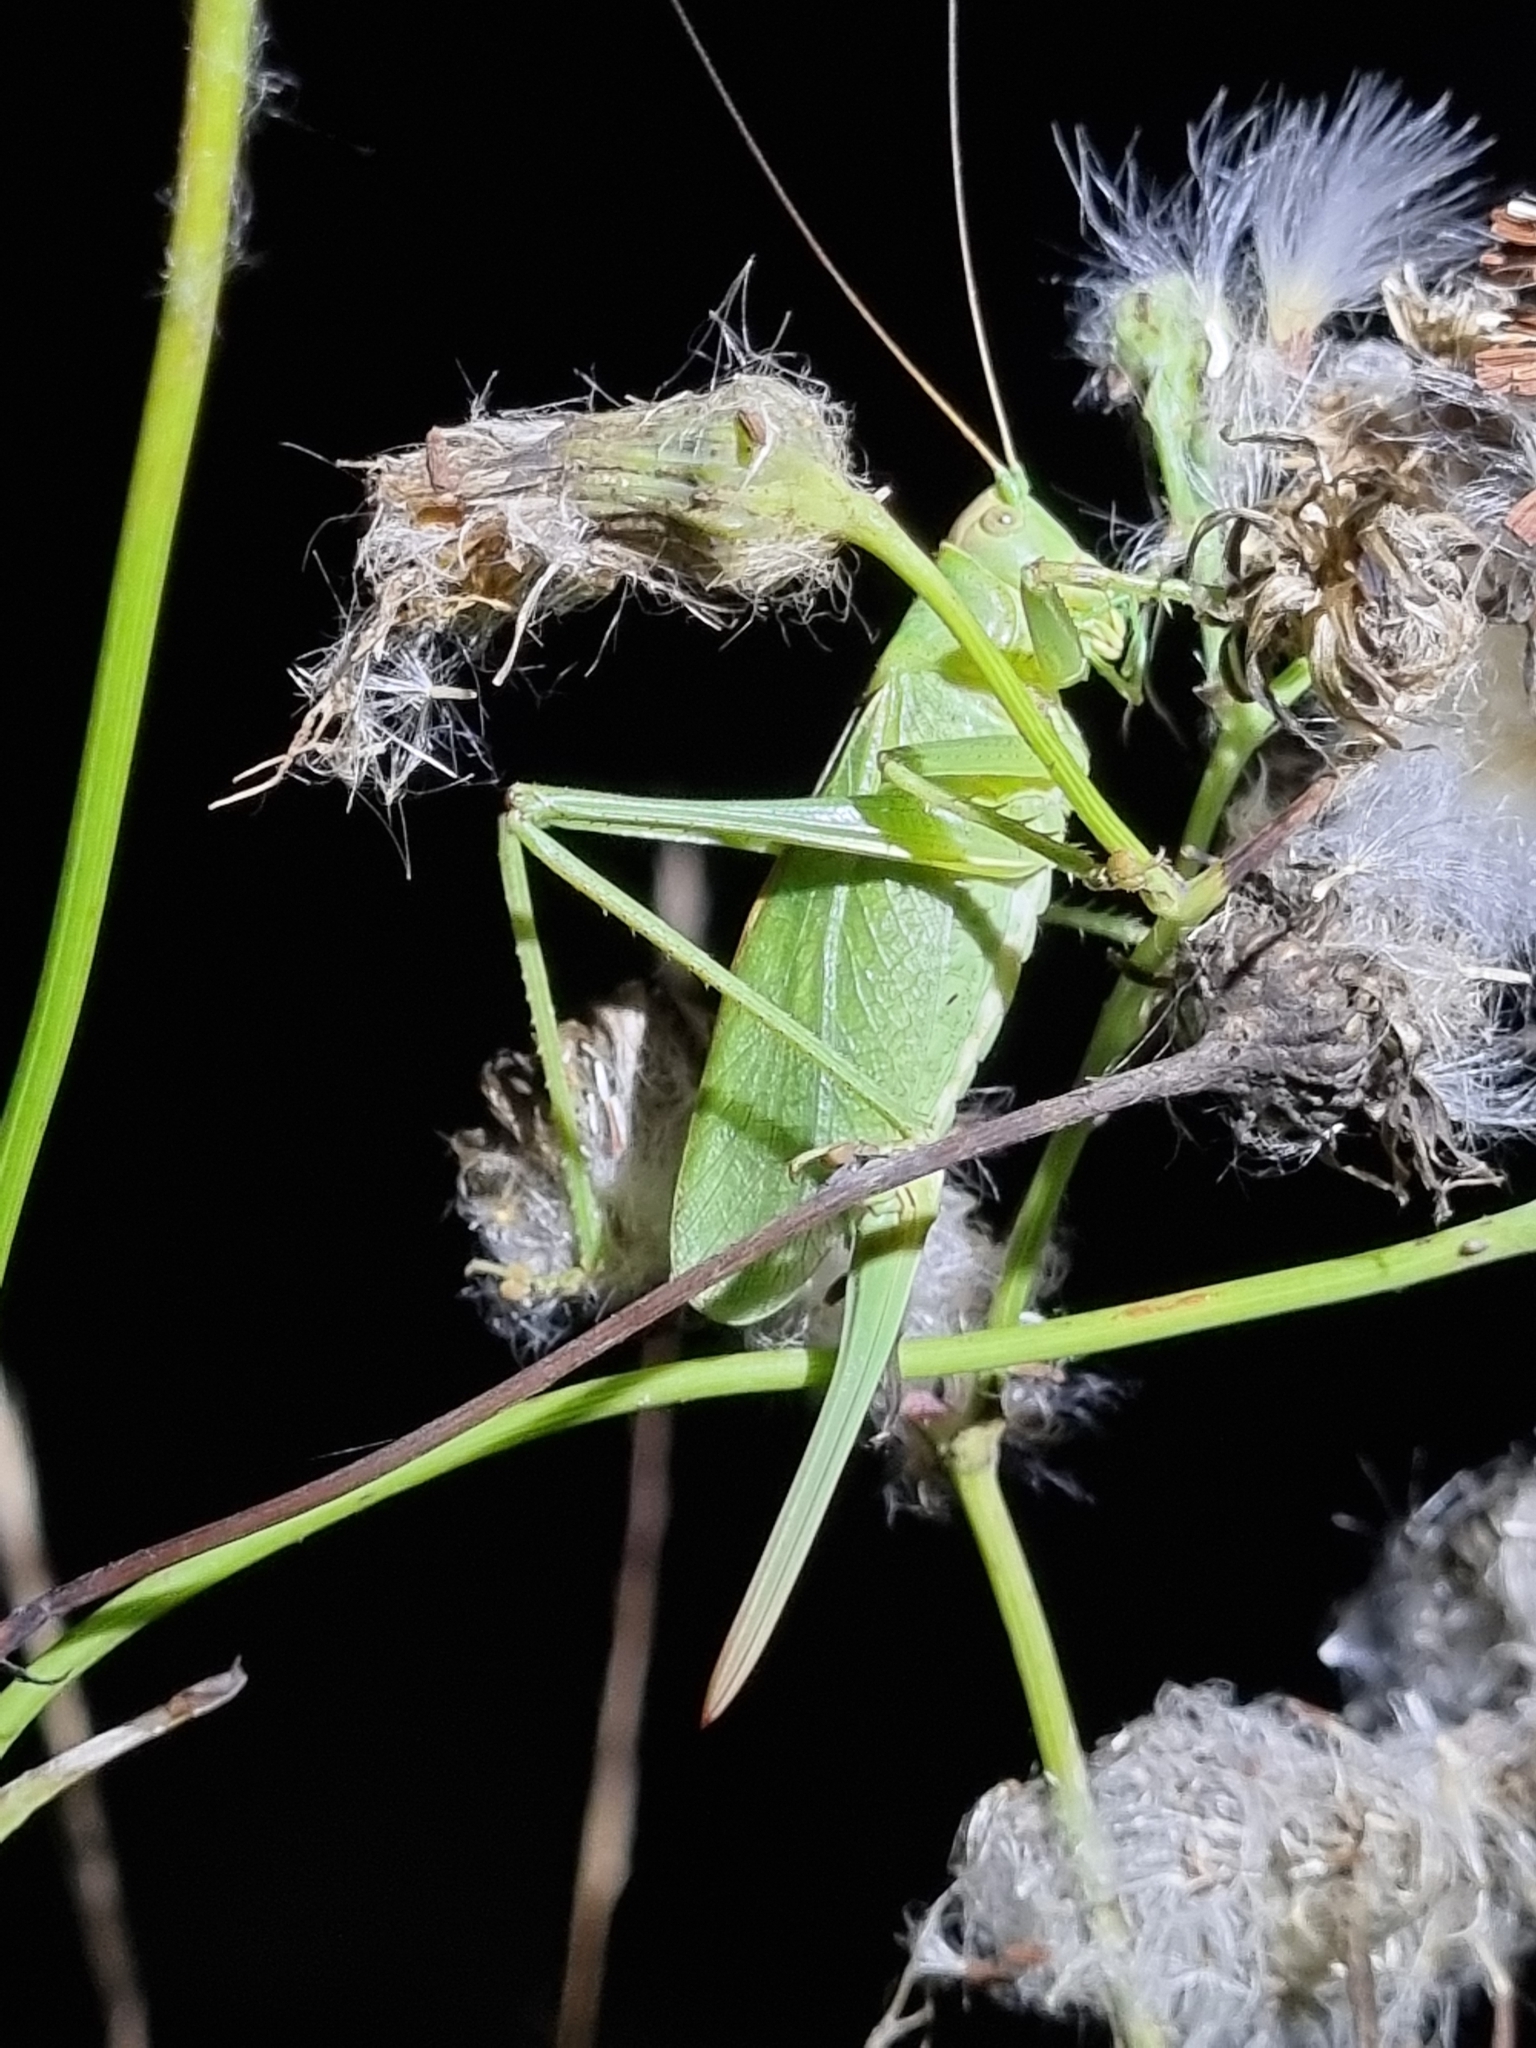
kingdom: Animalia
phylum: Arthropoda
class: Insecta
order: Orthoptera
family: Tettigoniidae
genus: Tettigonia
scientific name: Tettigonia cantans
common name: Upland green bush-cricket
